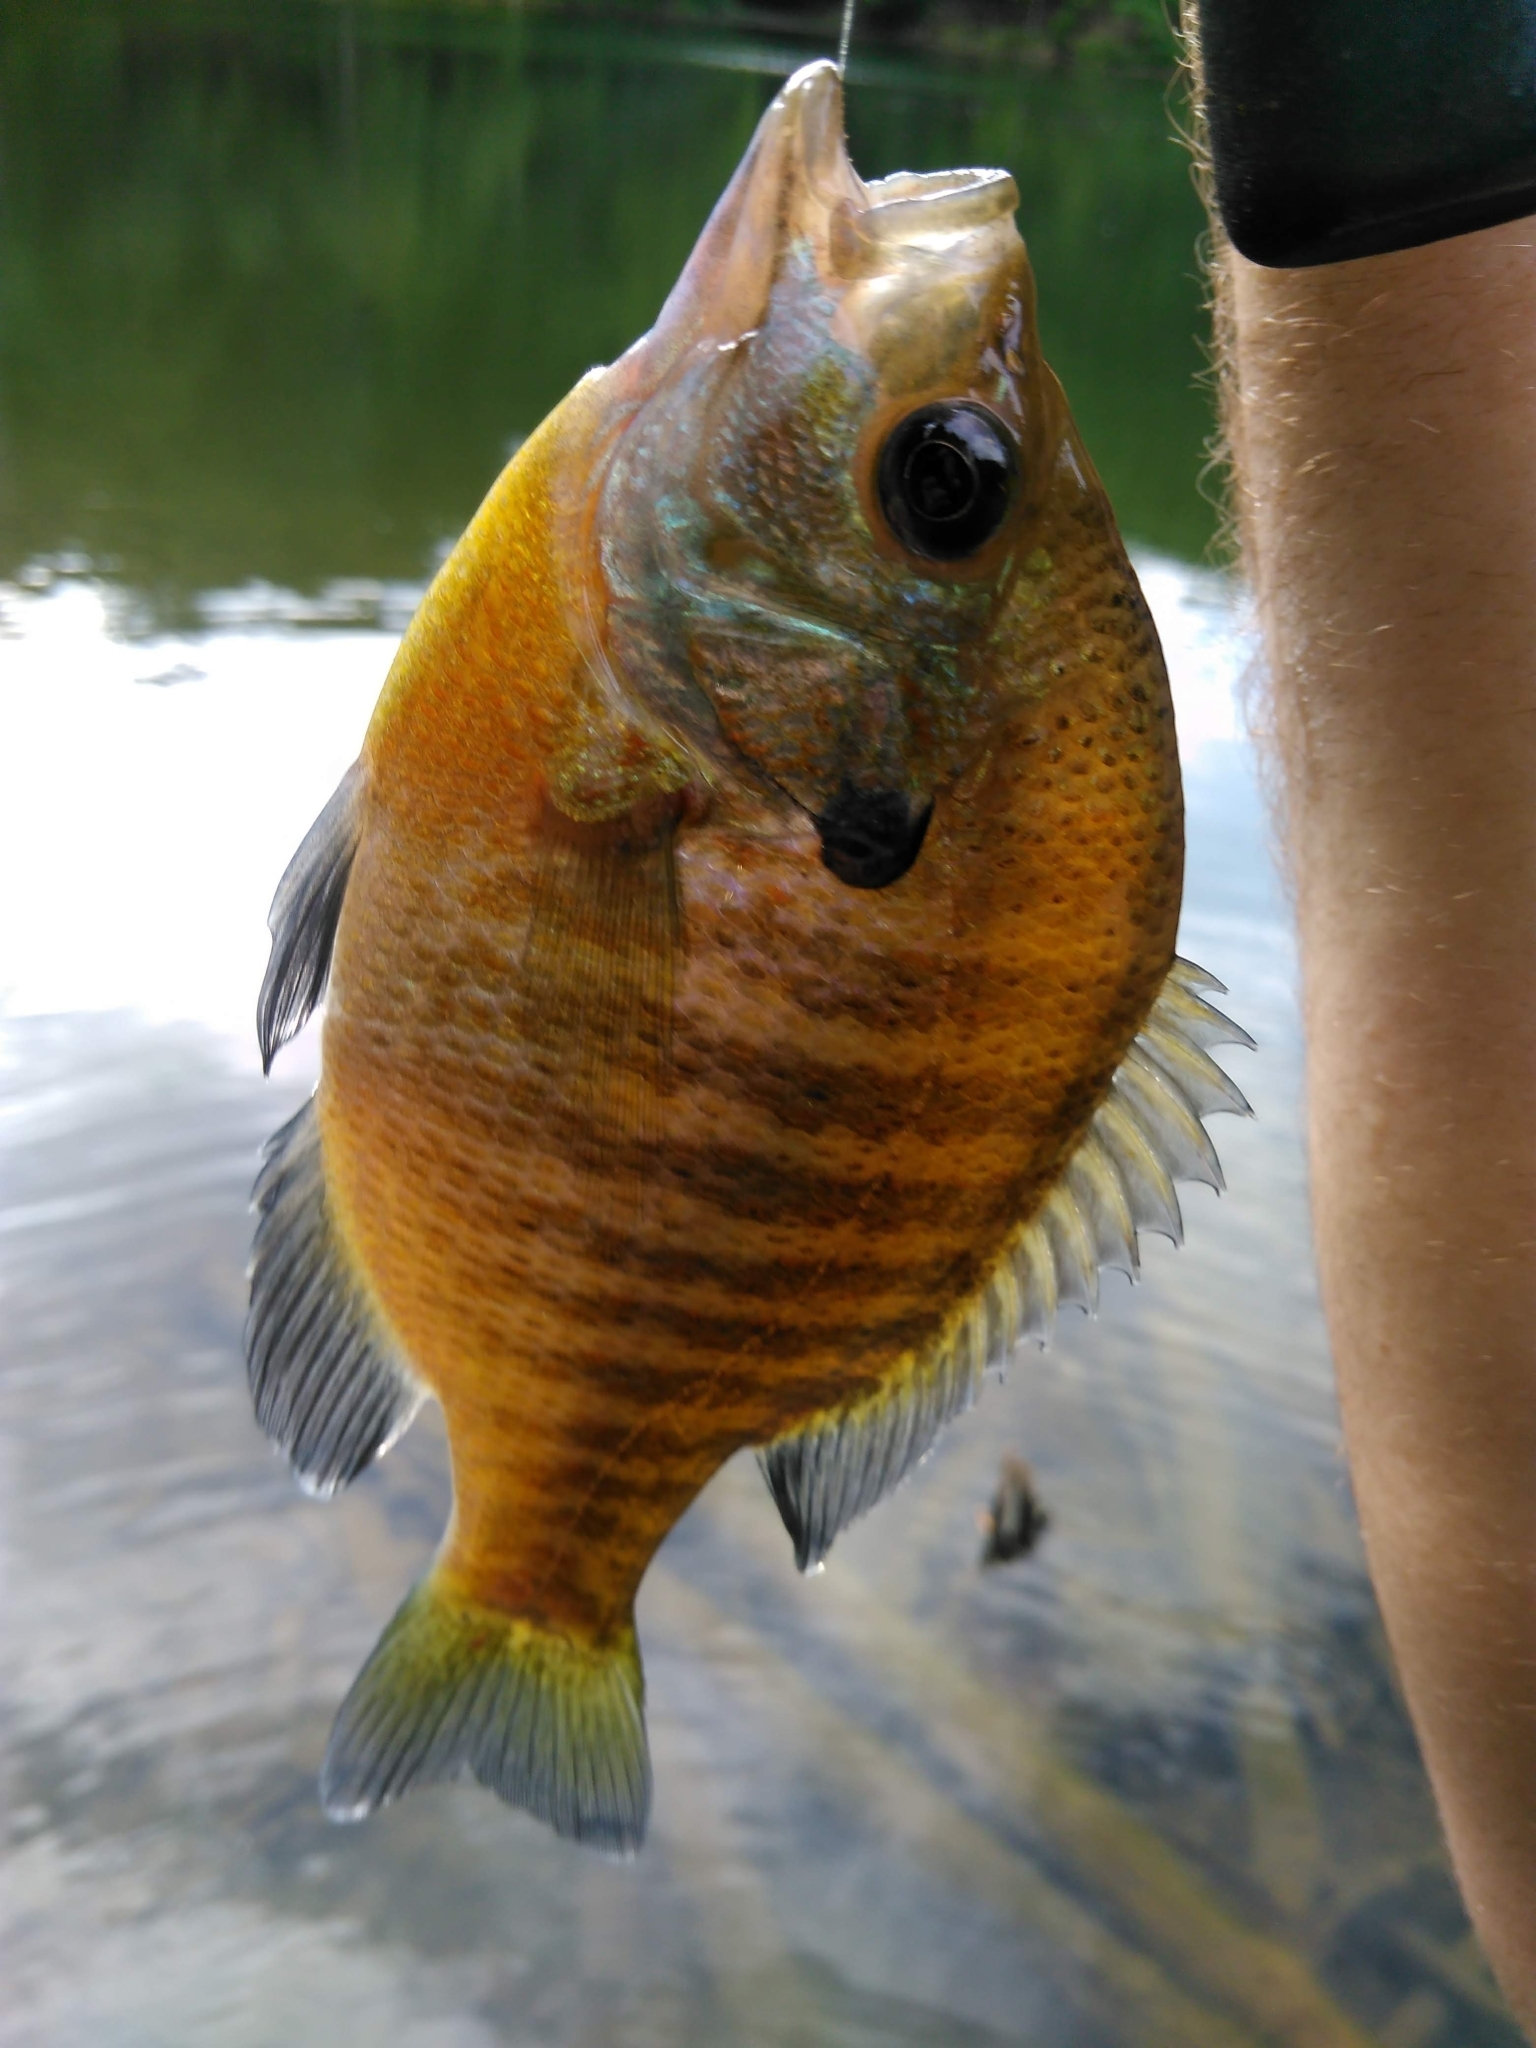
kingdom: Animalia
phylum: Chordata
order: Perciformes
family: Centrarchidae
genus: Lepomis
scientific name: Lepomis macrochirus
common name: Bluegill
